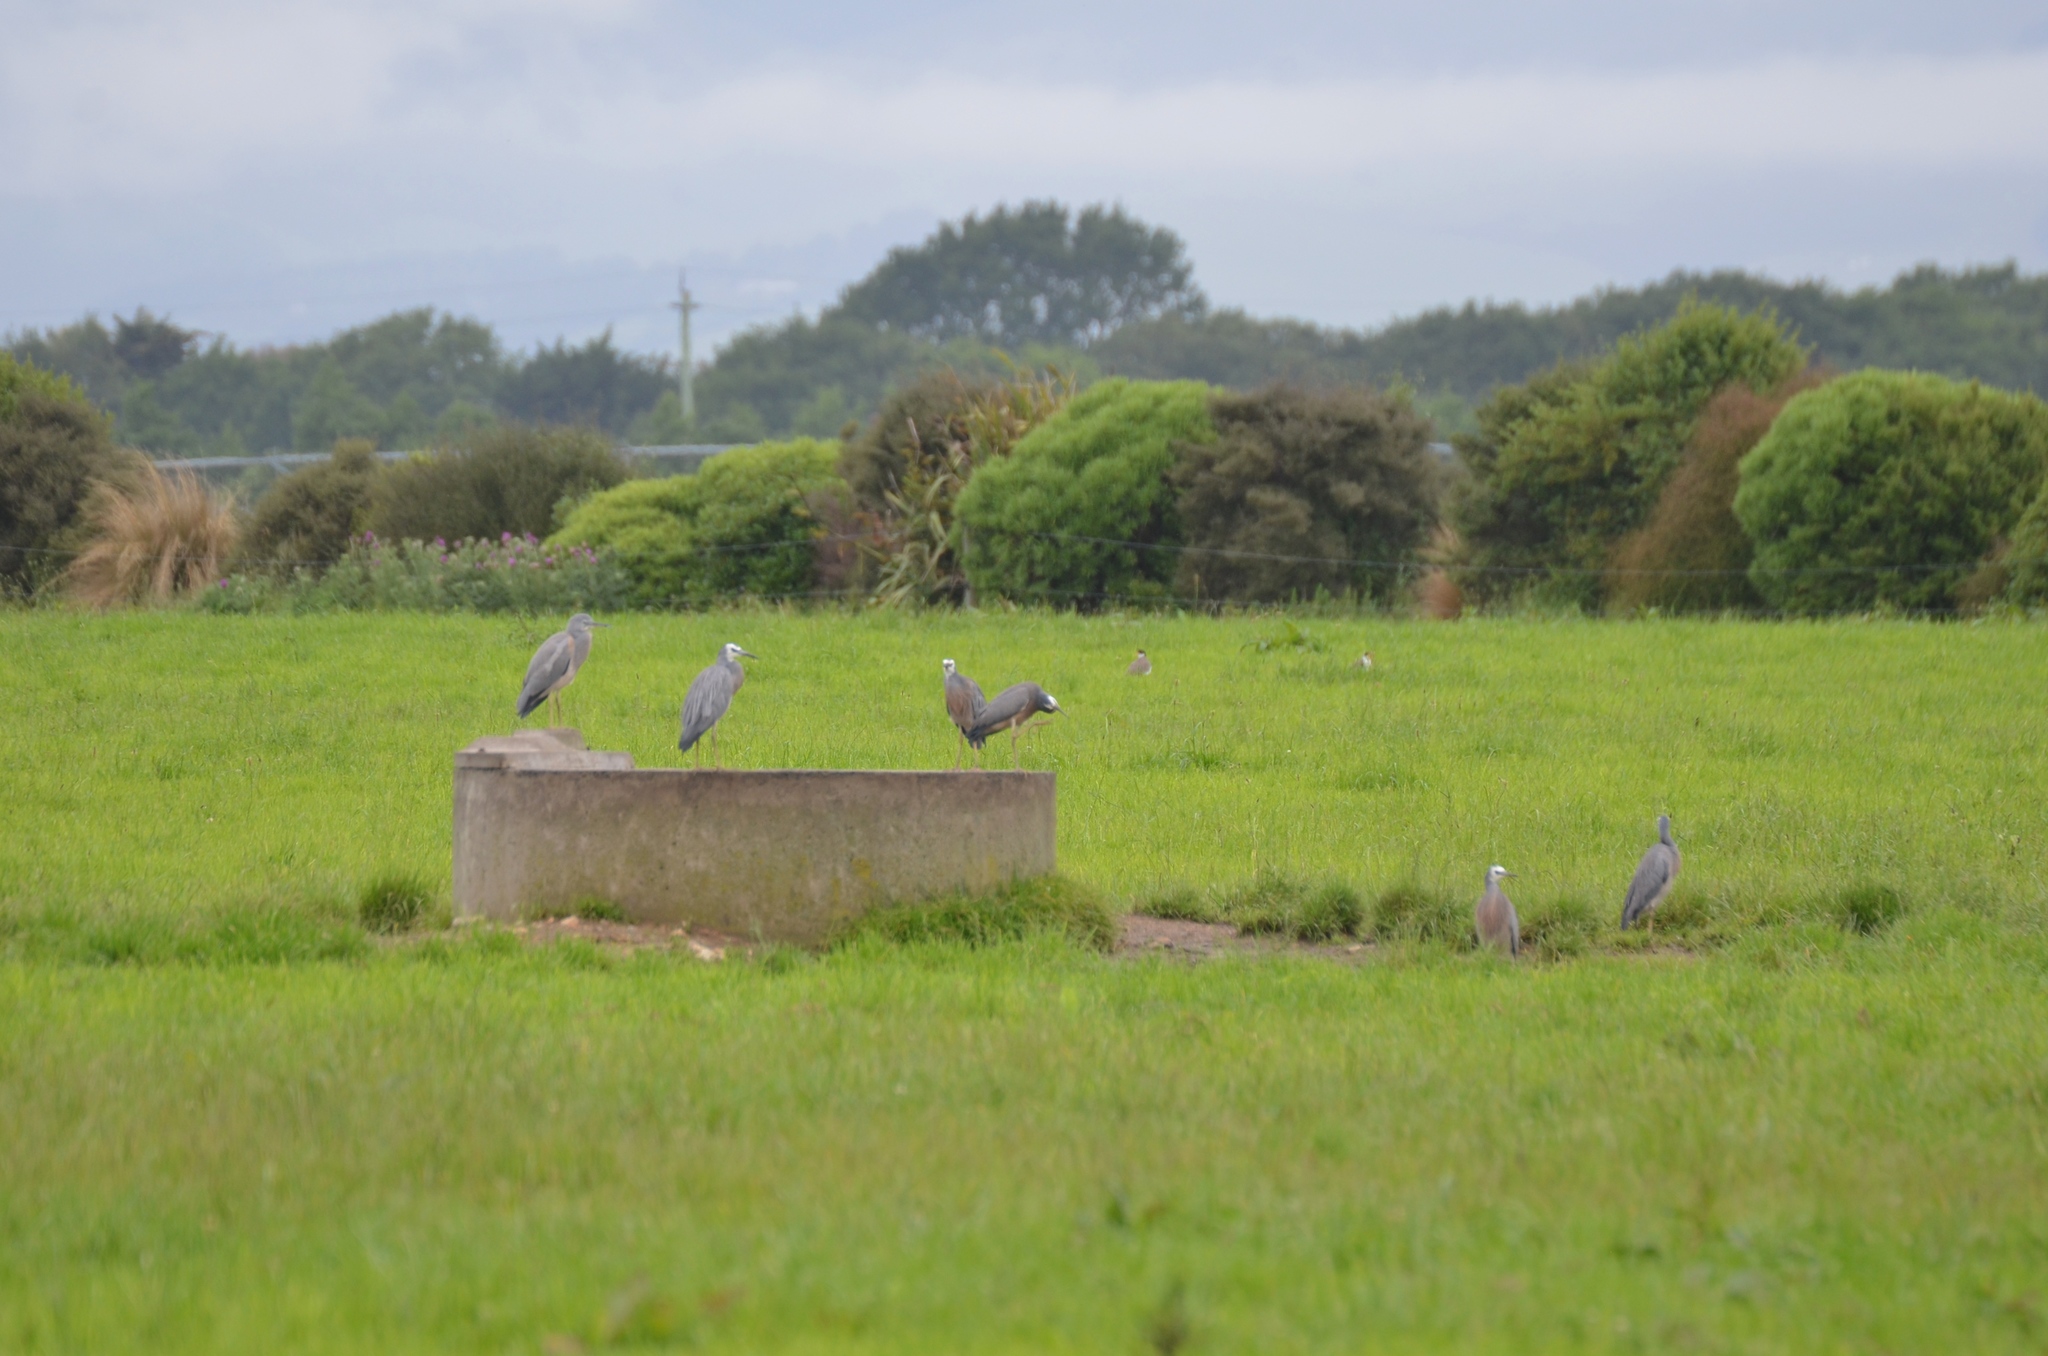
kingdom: Animalia
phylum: Chordata
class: Aves
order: Pelecaniformes
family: Ardeidae
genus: Egretta
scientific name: Egretta novaehollandiae
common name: White-faced heron
